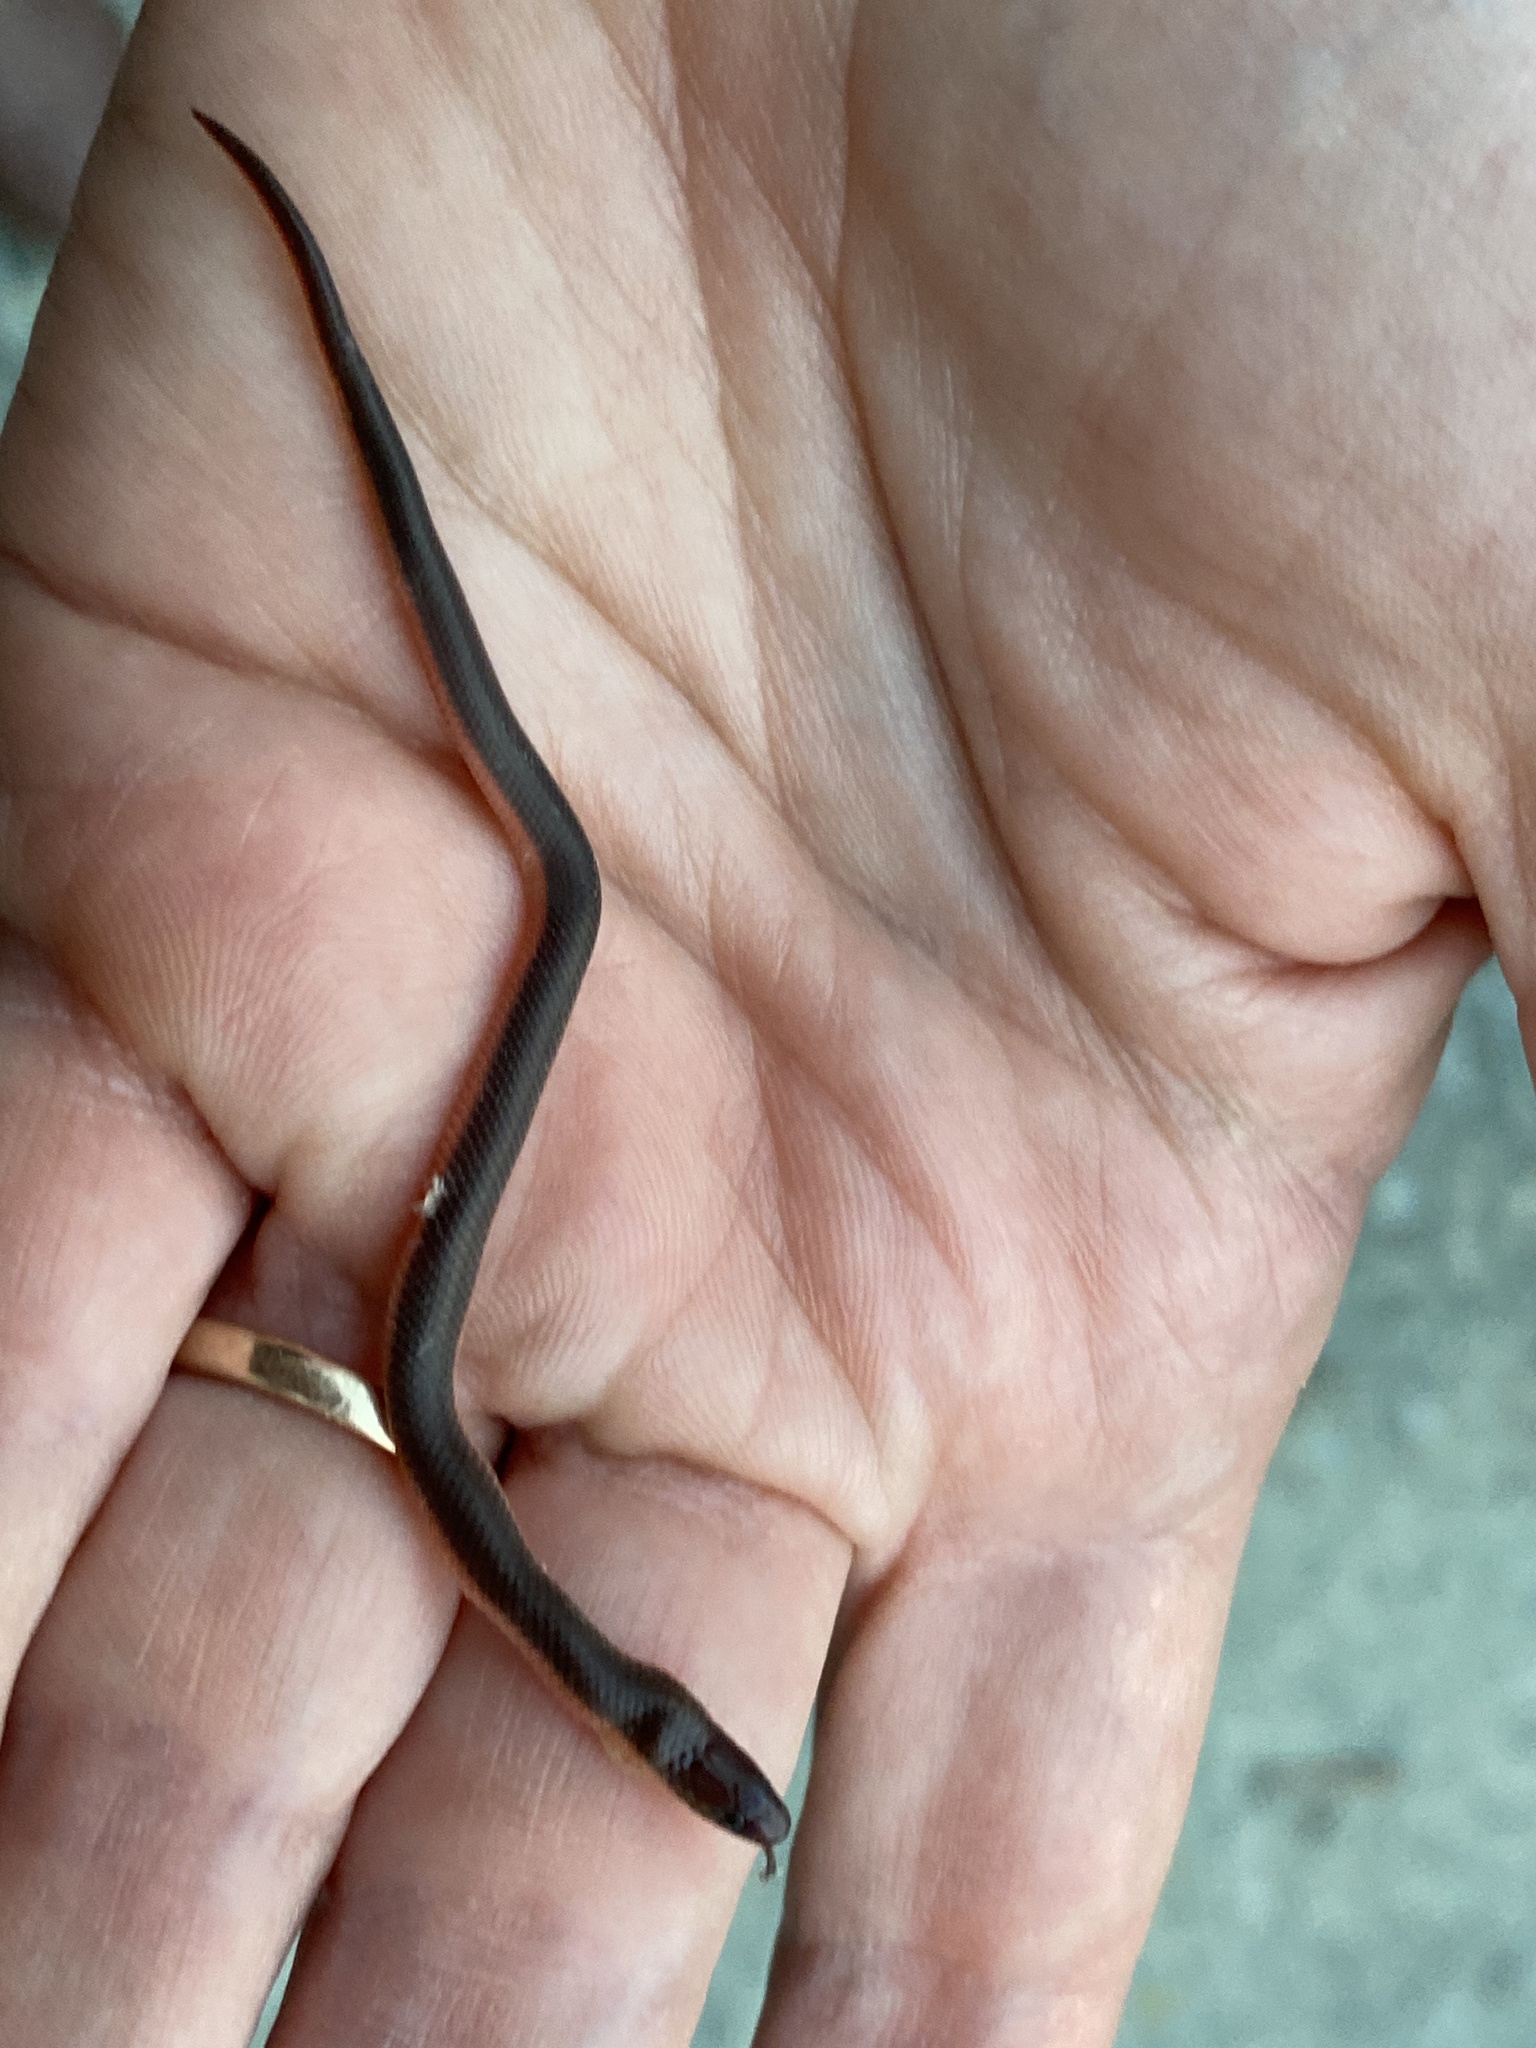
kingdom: Animalia
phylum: Chordata
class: Squamata
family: Colubridae
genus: Carphophis
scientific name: Carphophis amoenus
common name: Eastern worm snake
